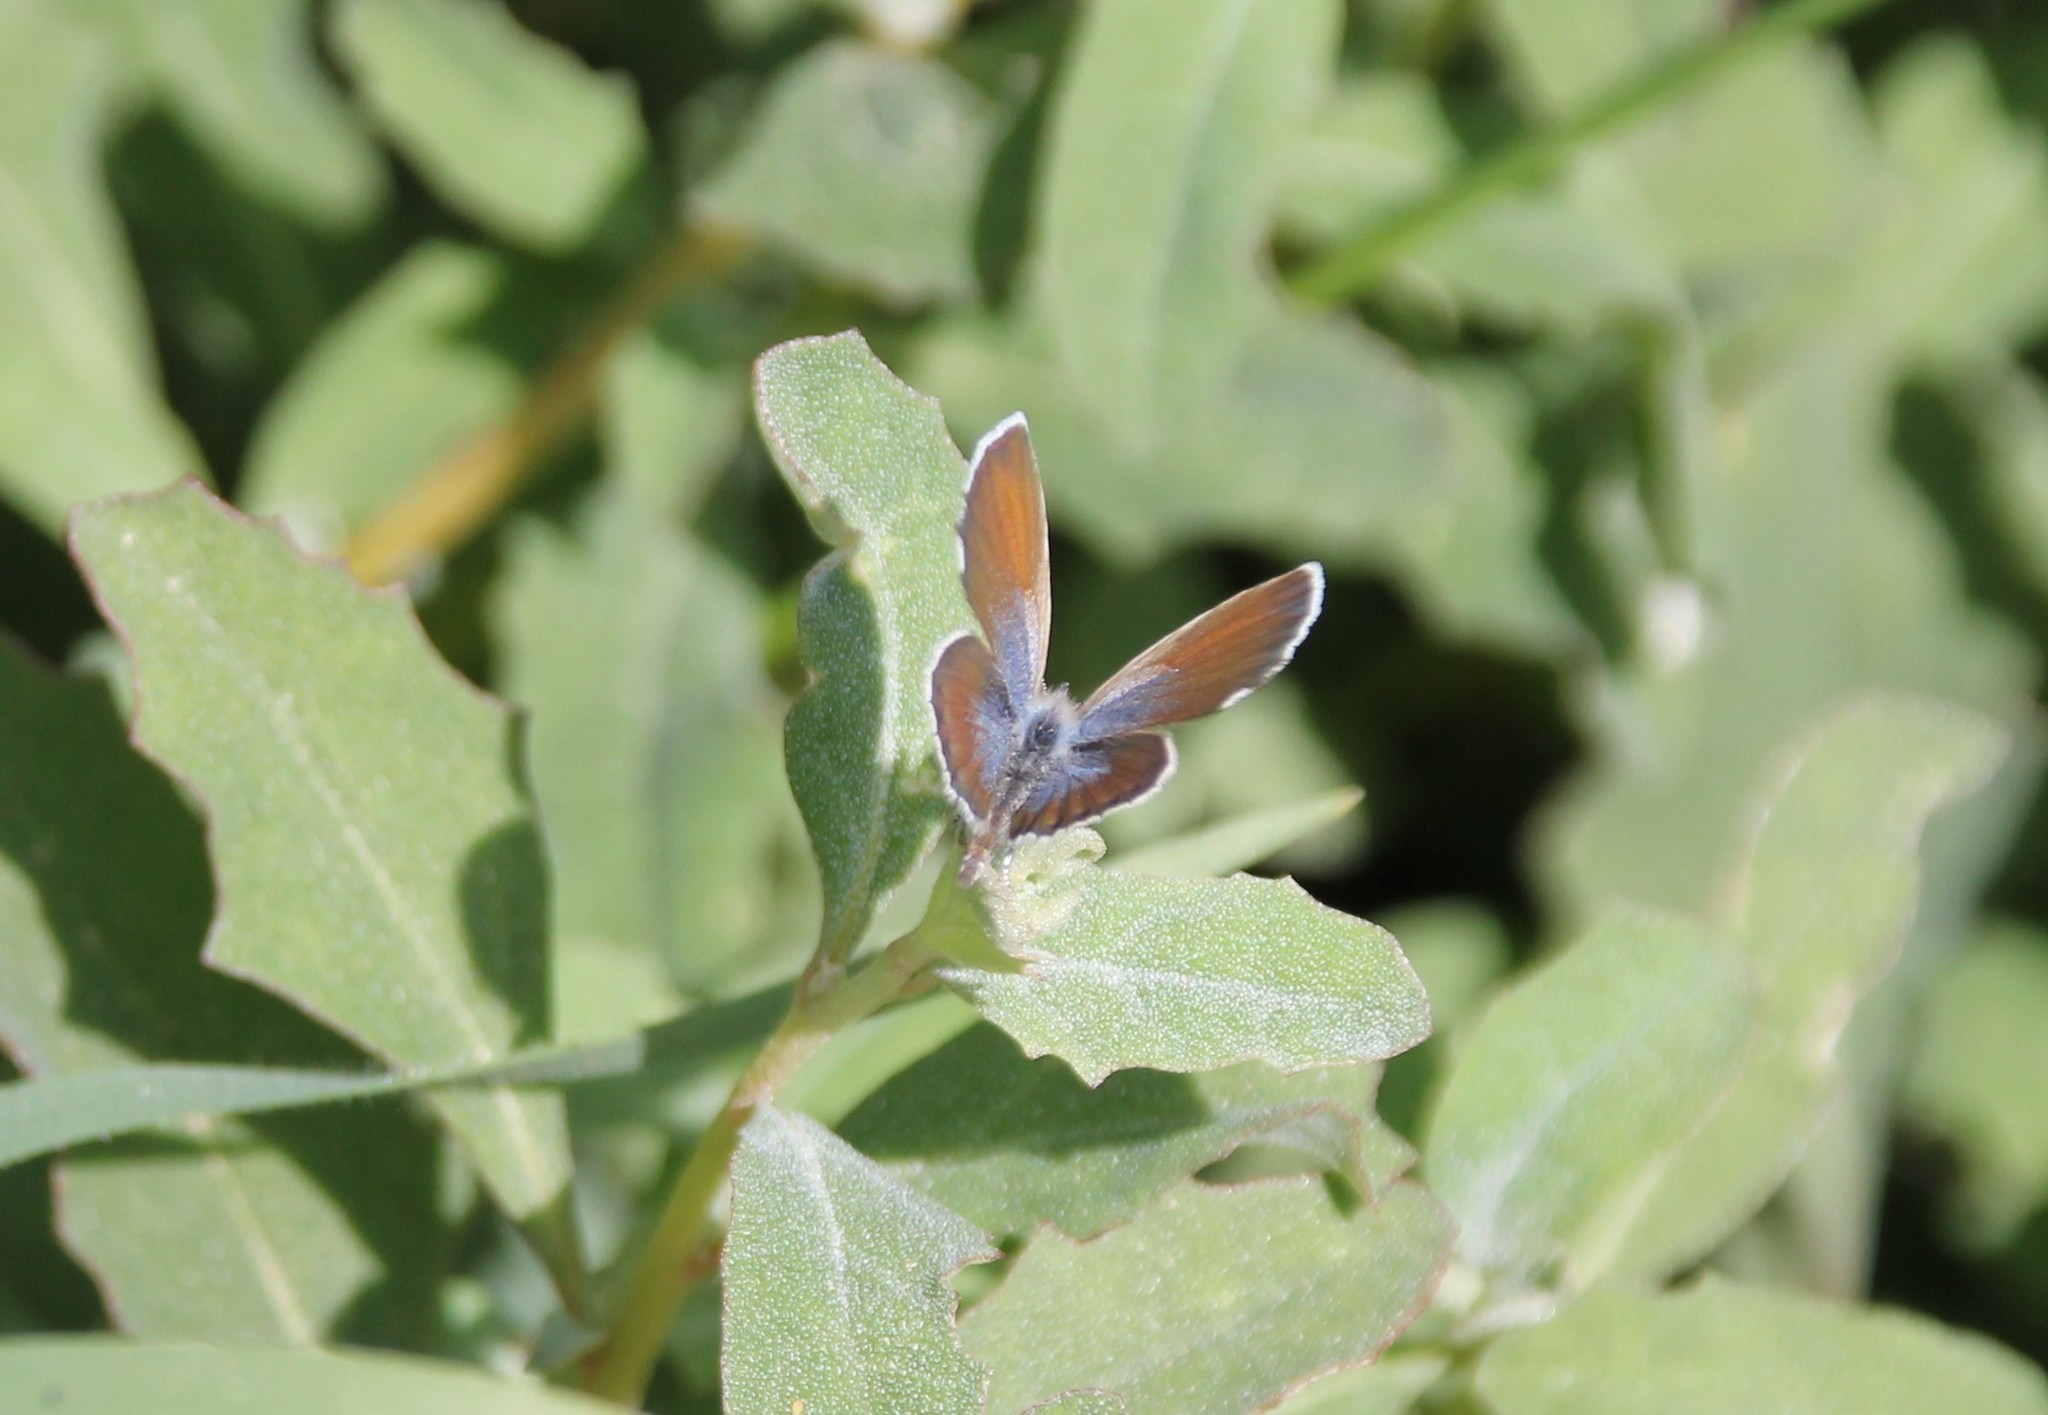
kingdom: Animalia
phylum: Arthropoda
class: Insecta
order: Lepidoptera
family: Lycaenidae
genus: Brephidium
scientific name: Brephidium exilis
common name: Pygmy blue
